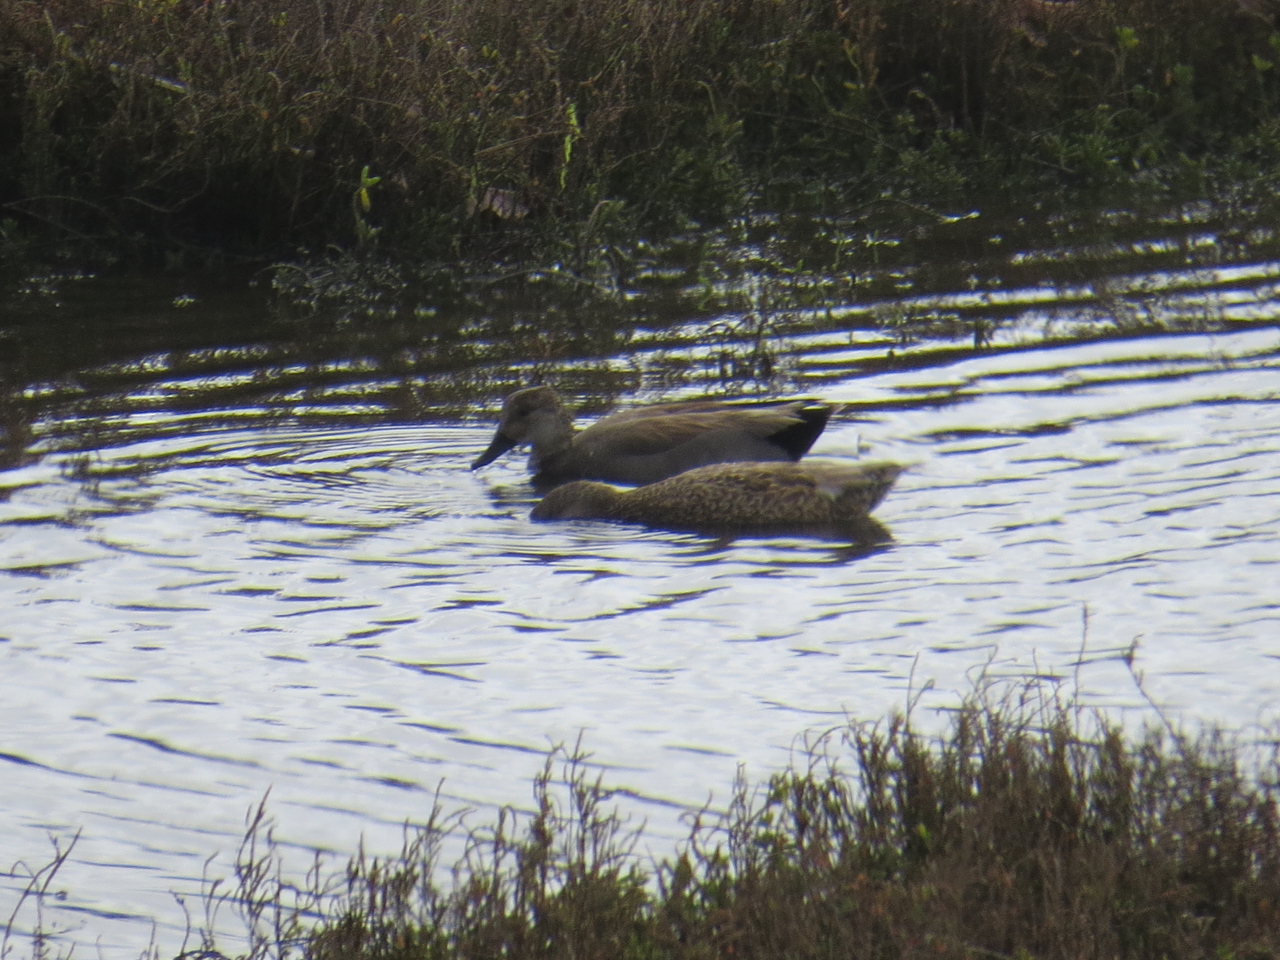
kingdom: Animalia
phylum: Chordata
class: Aves
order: Anseriformes
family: Anatidae
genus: Mareca
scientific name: Mareca strepera
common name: Gadwall
